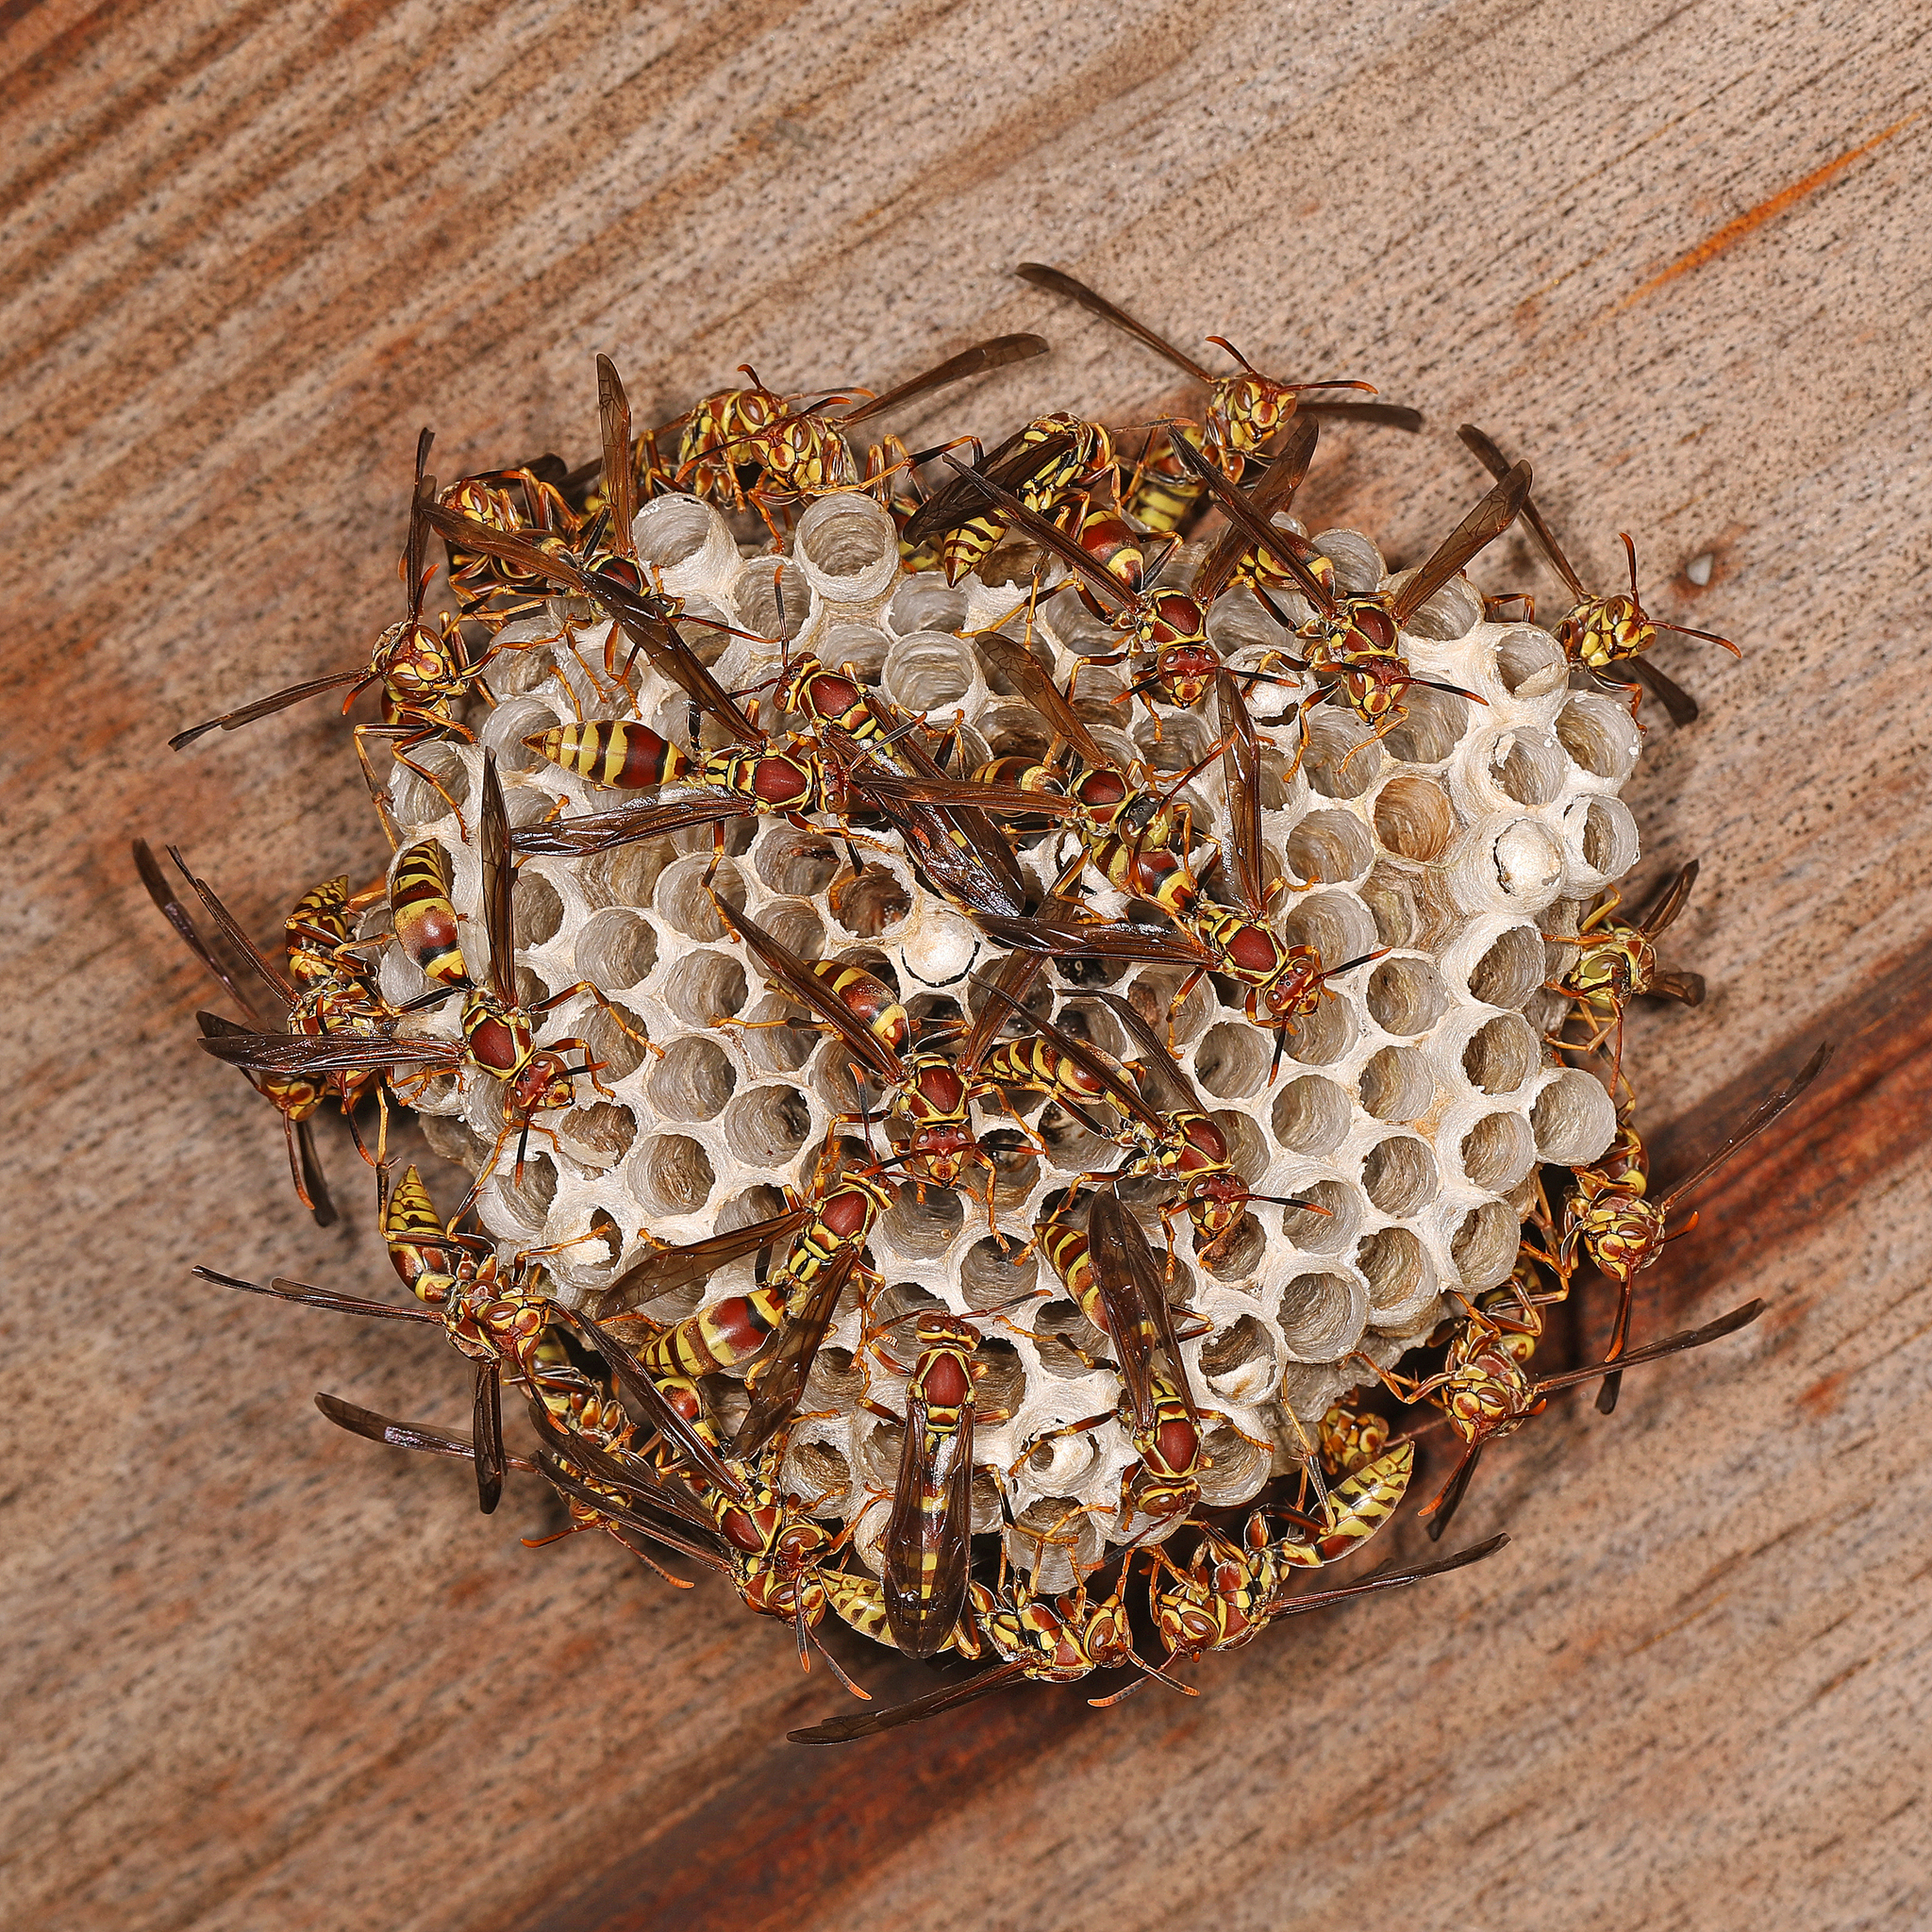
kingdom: Animalia
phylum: Arthropoda
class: Insecta
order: Hymenoptera
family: Eumenidae
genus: Polistes
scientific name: Polistes exclamans
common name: Paper wasp
